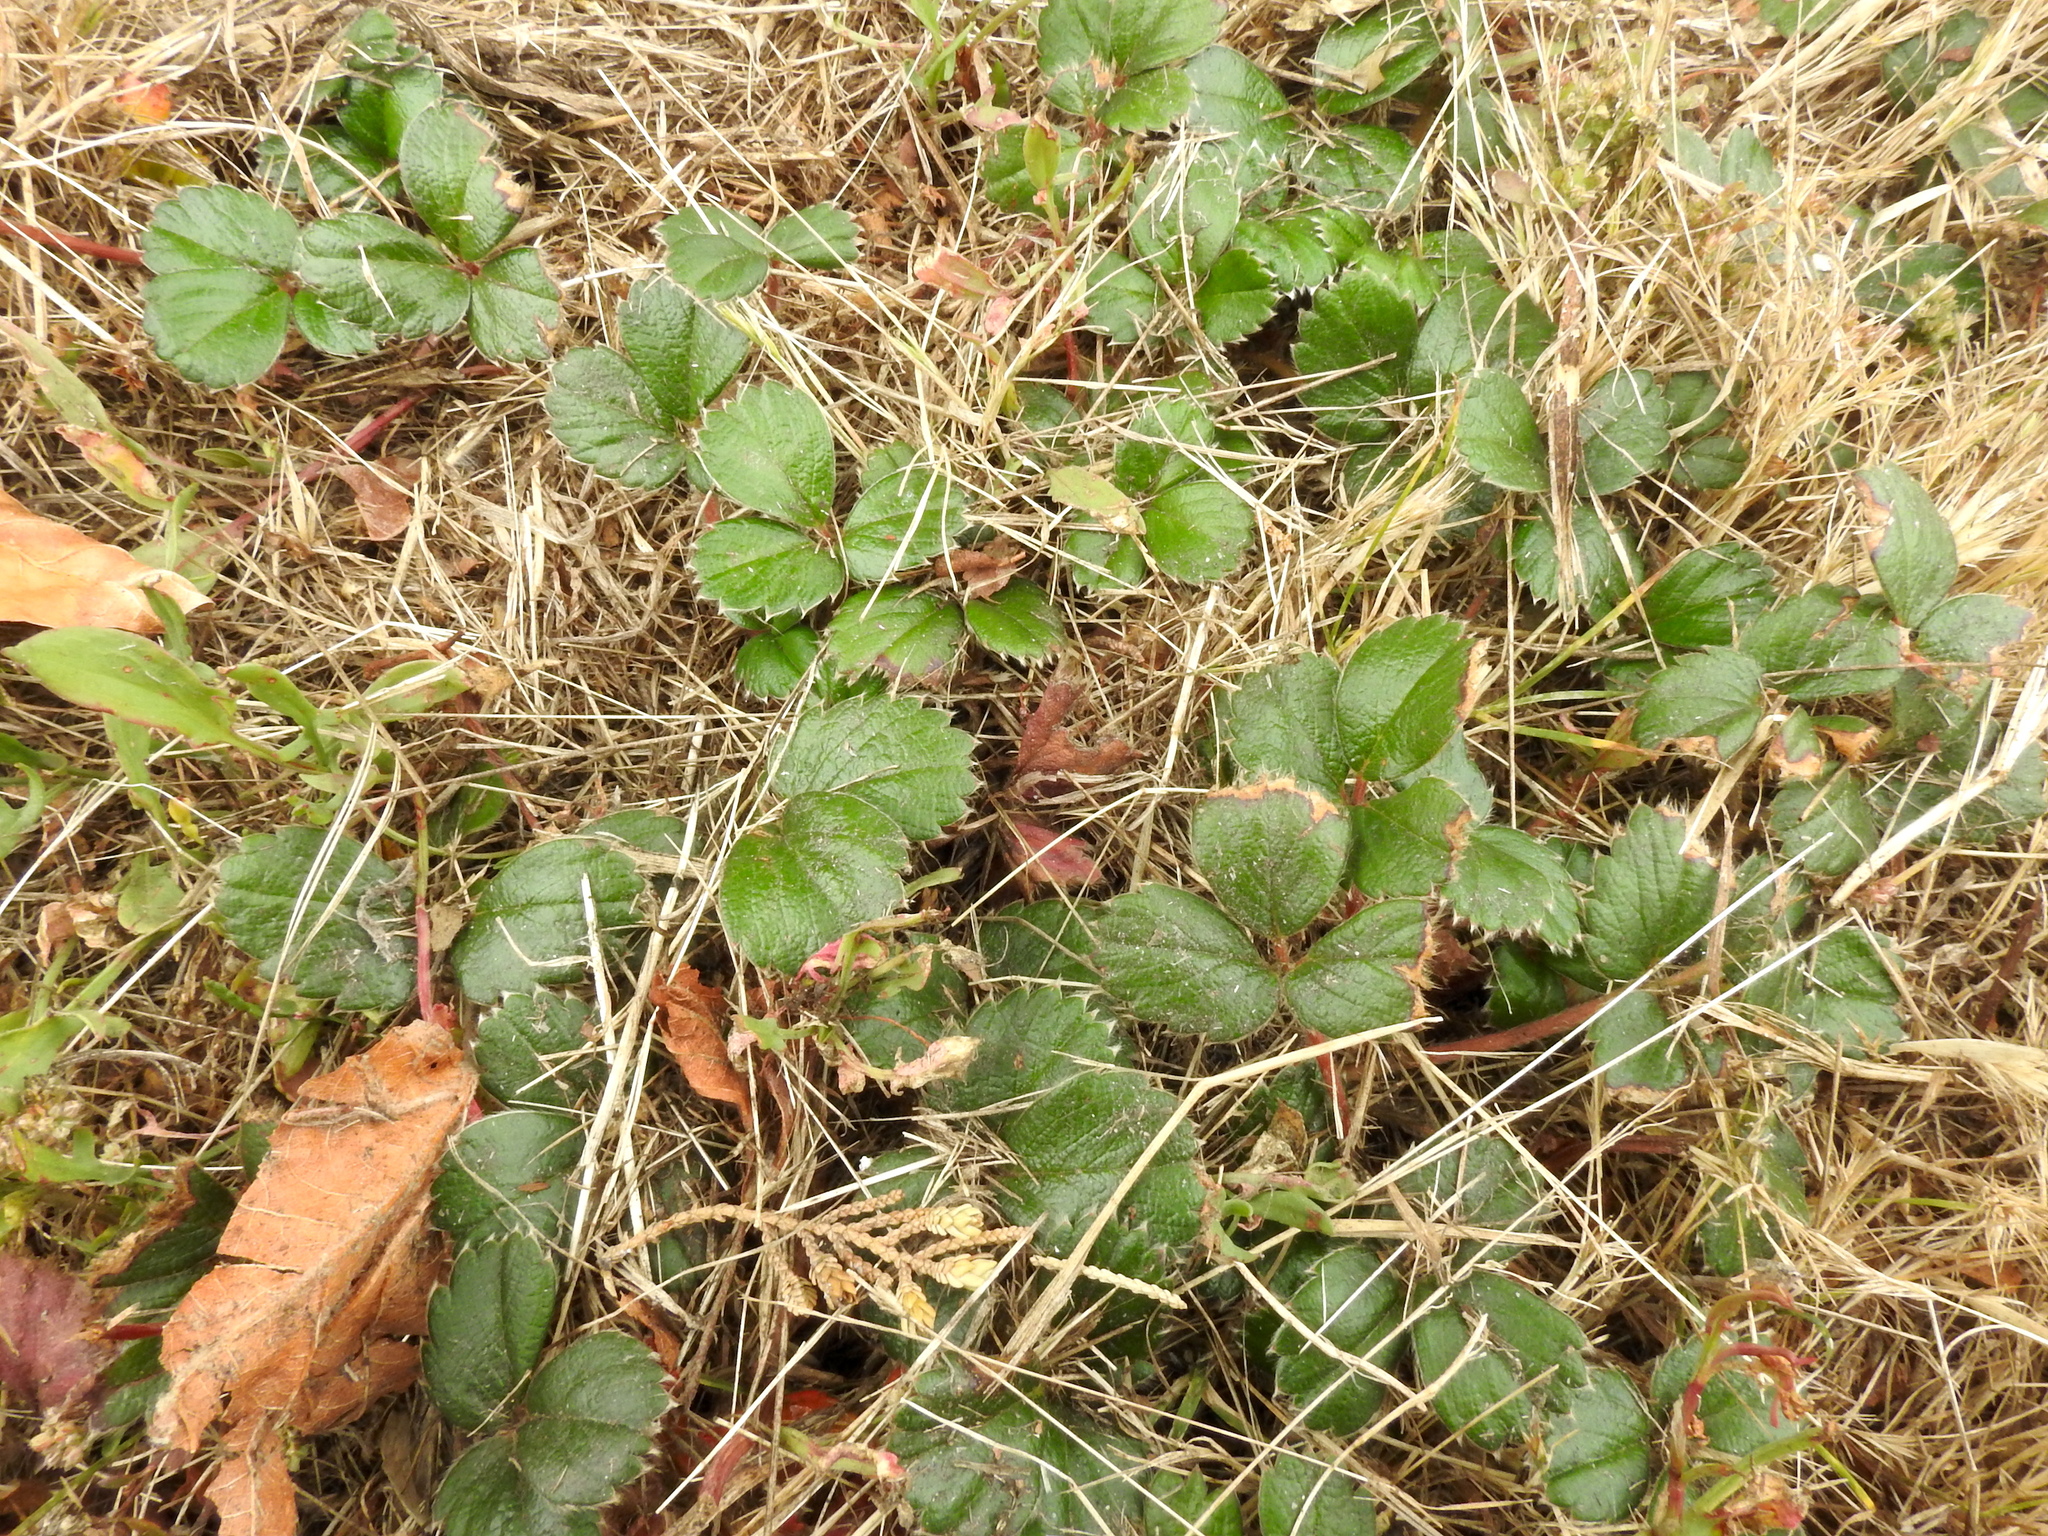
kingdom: Plantae
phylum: Tracheophyta
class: Magnoliopsida
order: Rosales
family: Rosaceae
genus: Fragaria
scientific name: Fragaria chiloensis
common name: Beach strawberry
